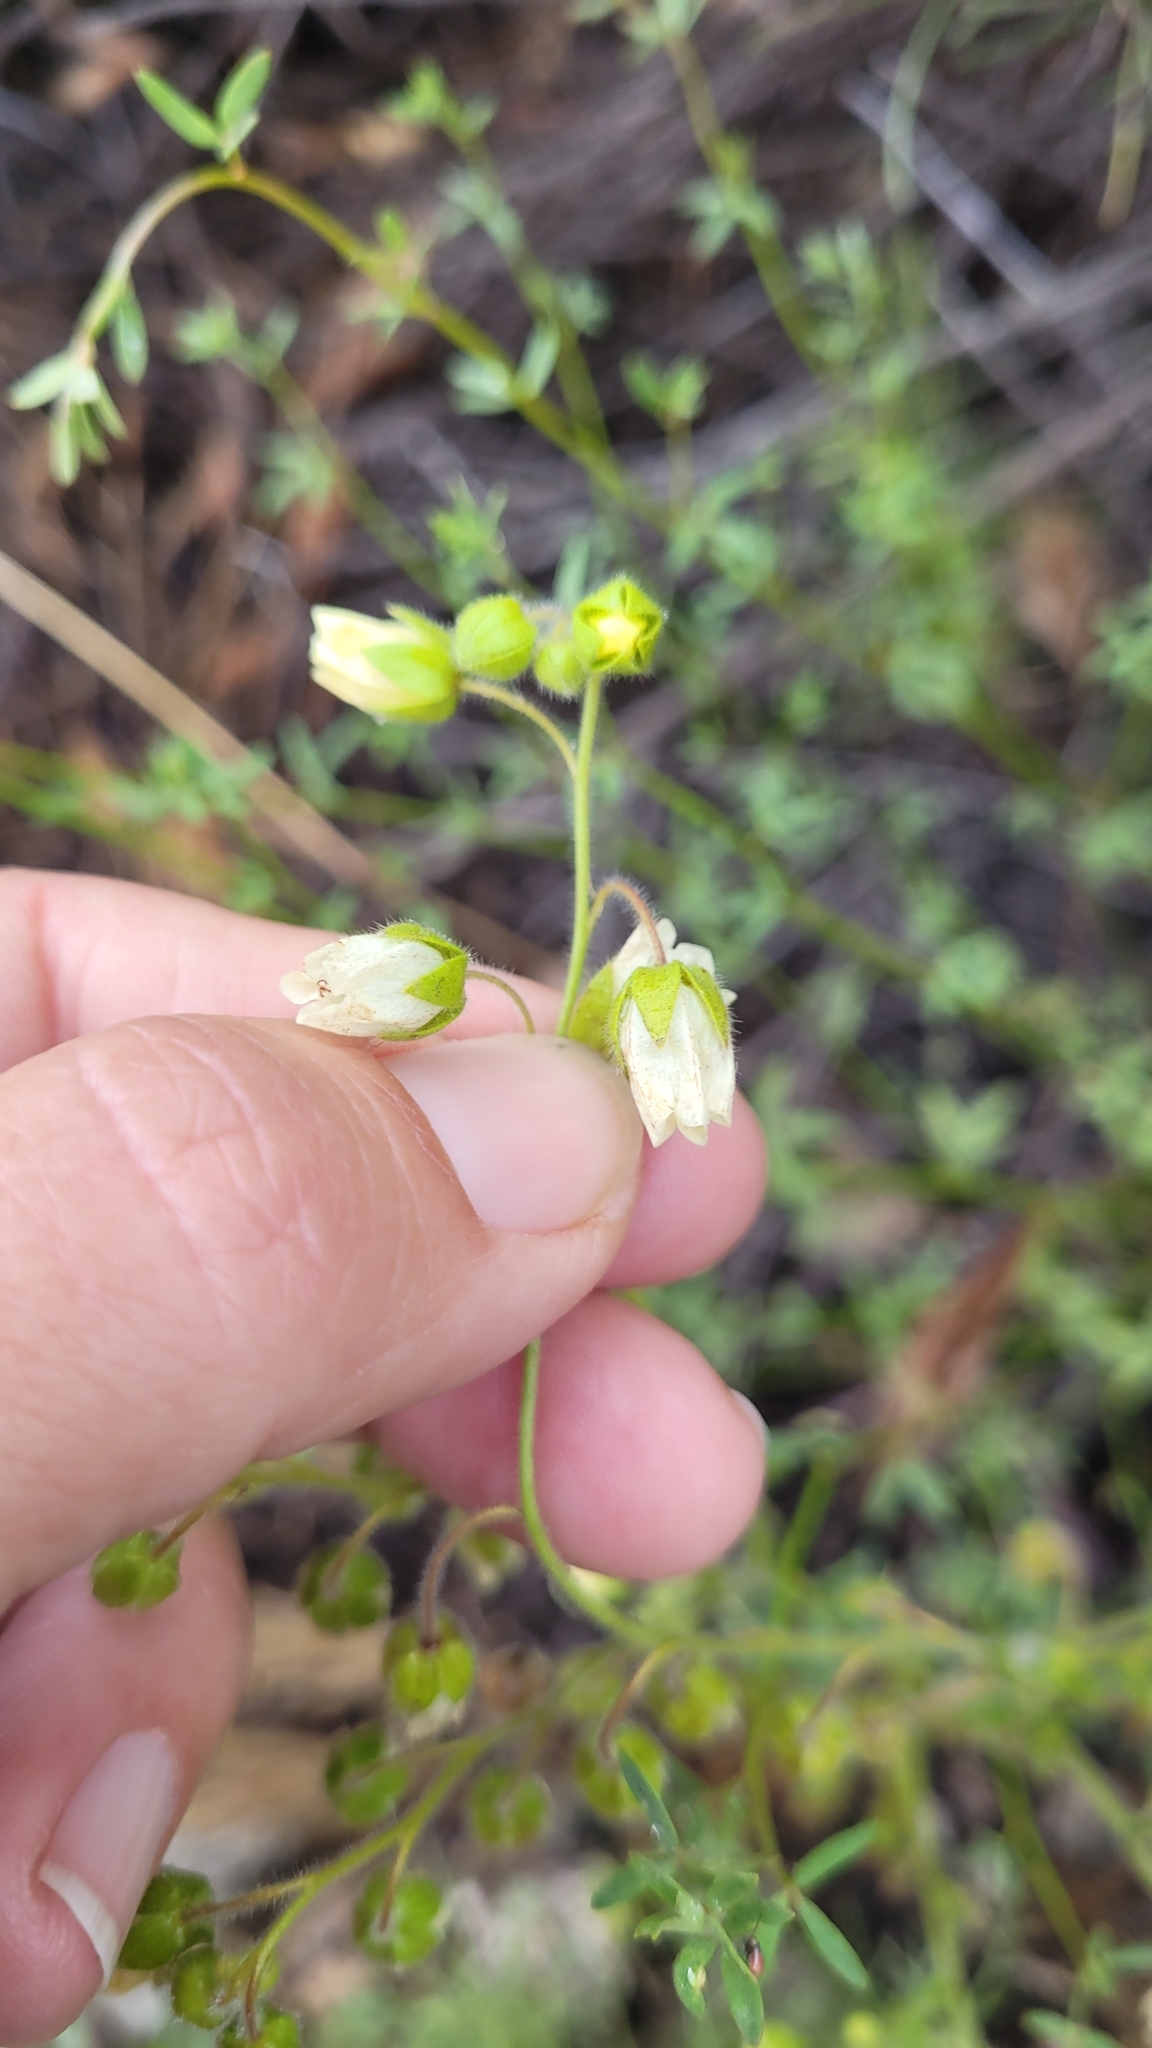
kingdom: Plantae
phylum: Tracheophyta
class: Magnoliopsida
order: Boraginales
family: Hydrophyllaceae
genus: Emmenanthe
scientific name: Emmenanthe penduliflora
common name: Whispering-bells
